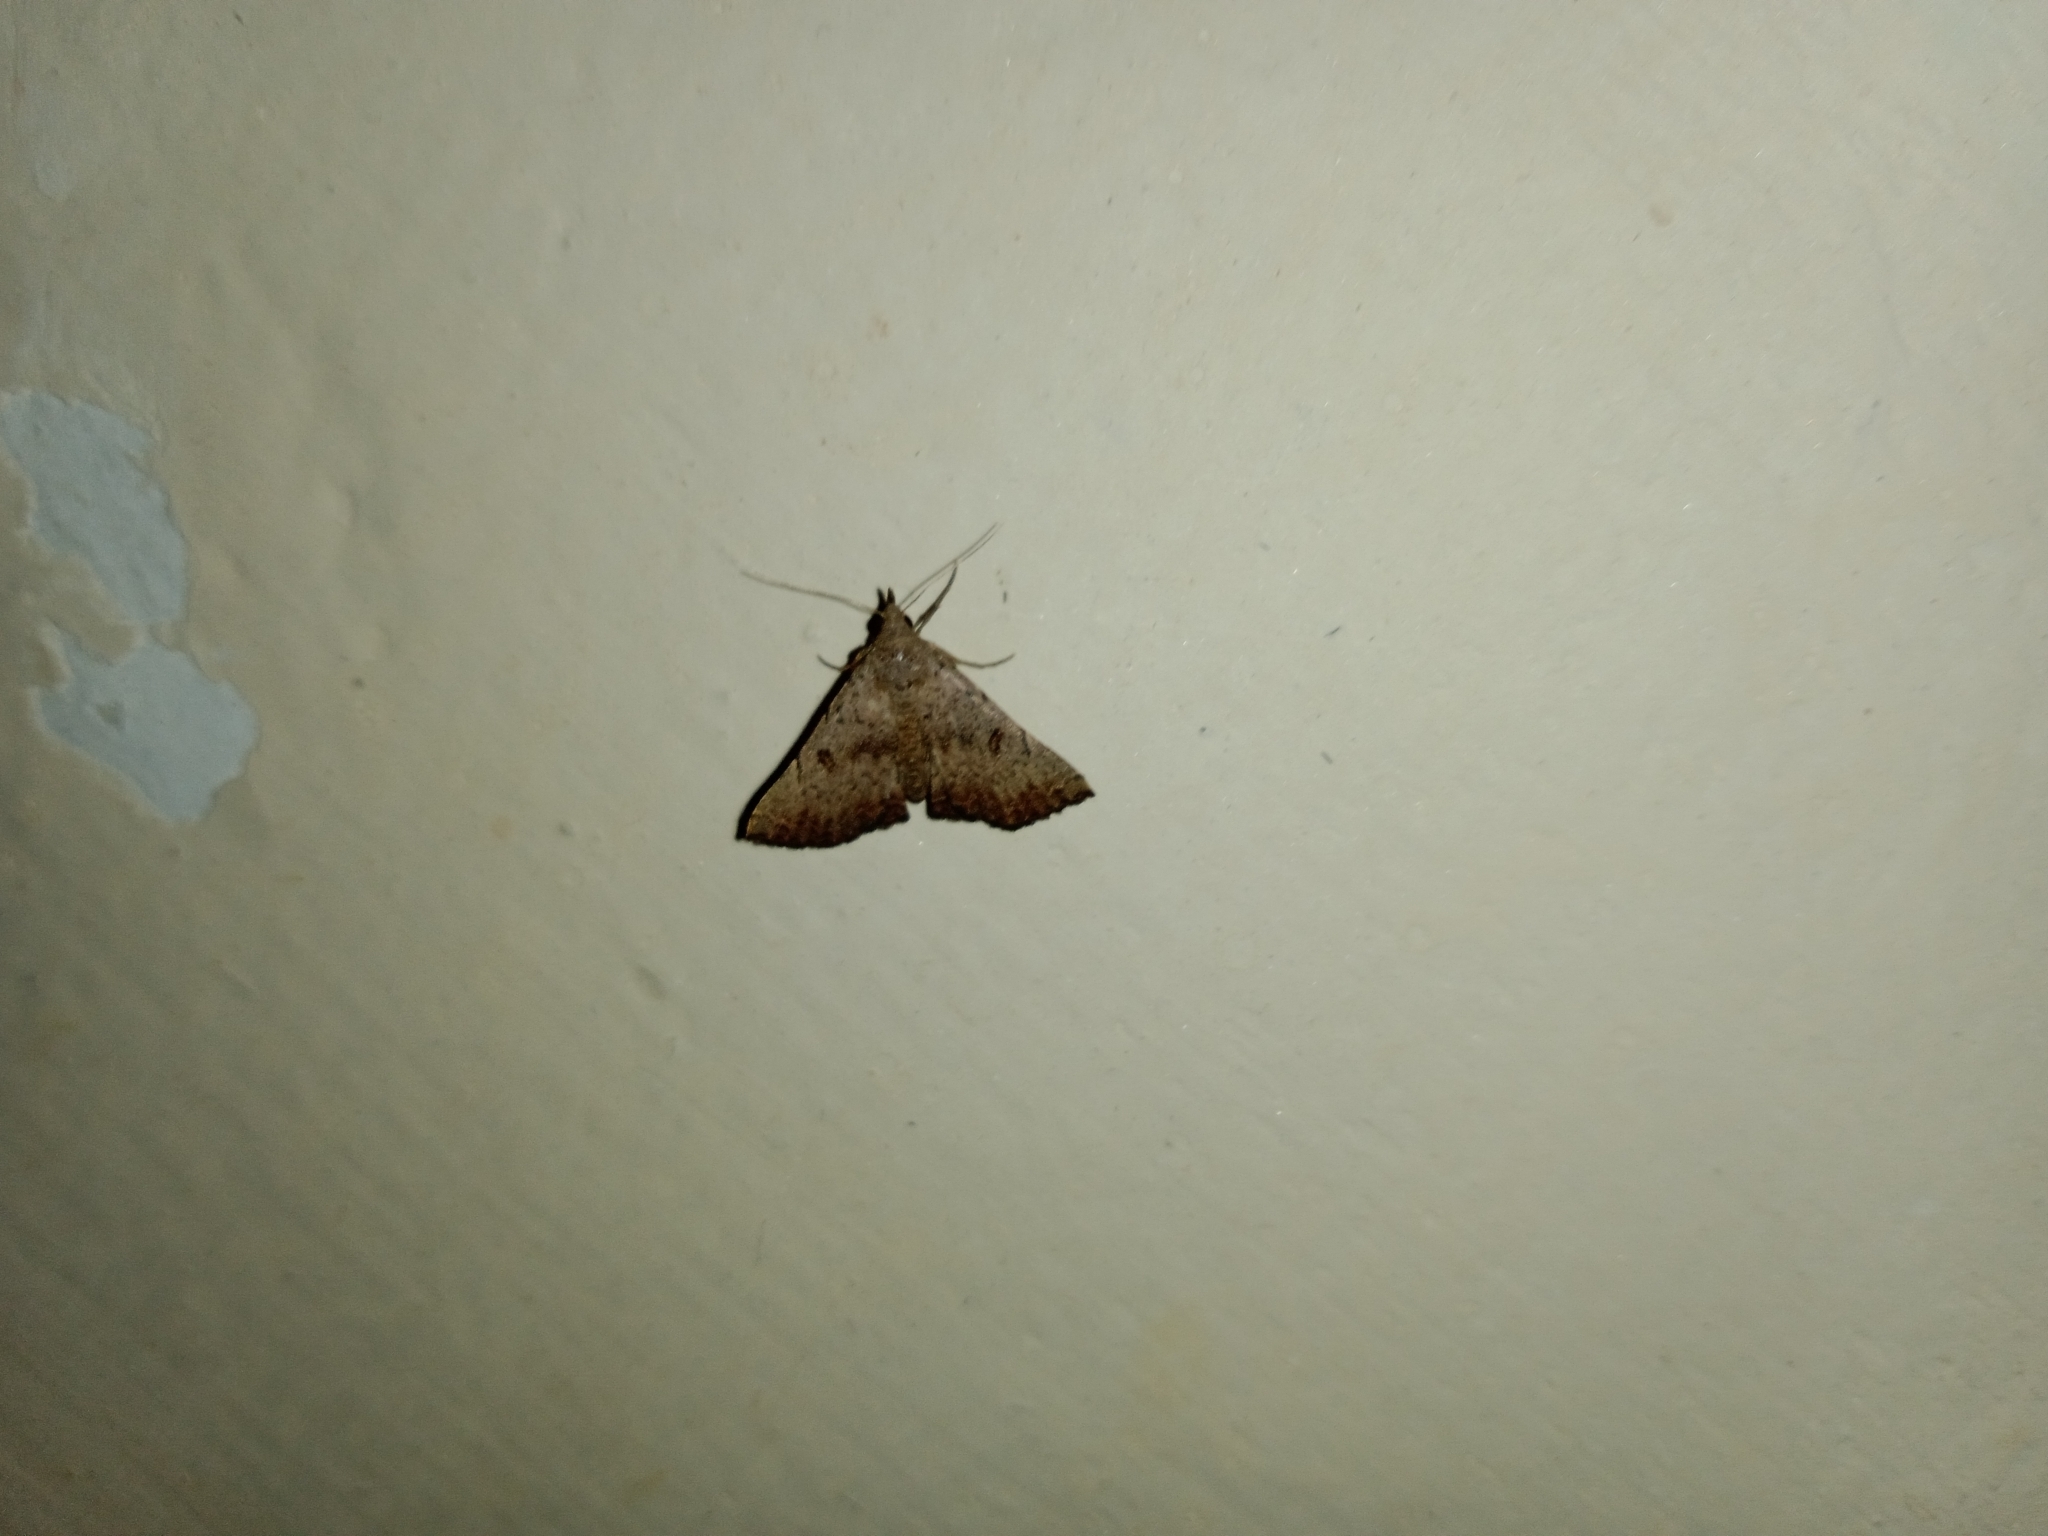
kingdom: Animalia
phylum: Arthropoda
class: Insecta
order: Lepidoptera
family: Erebidae
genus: Progonia
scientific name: Progonia oileusalis
